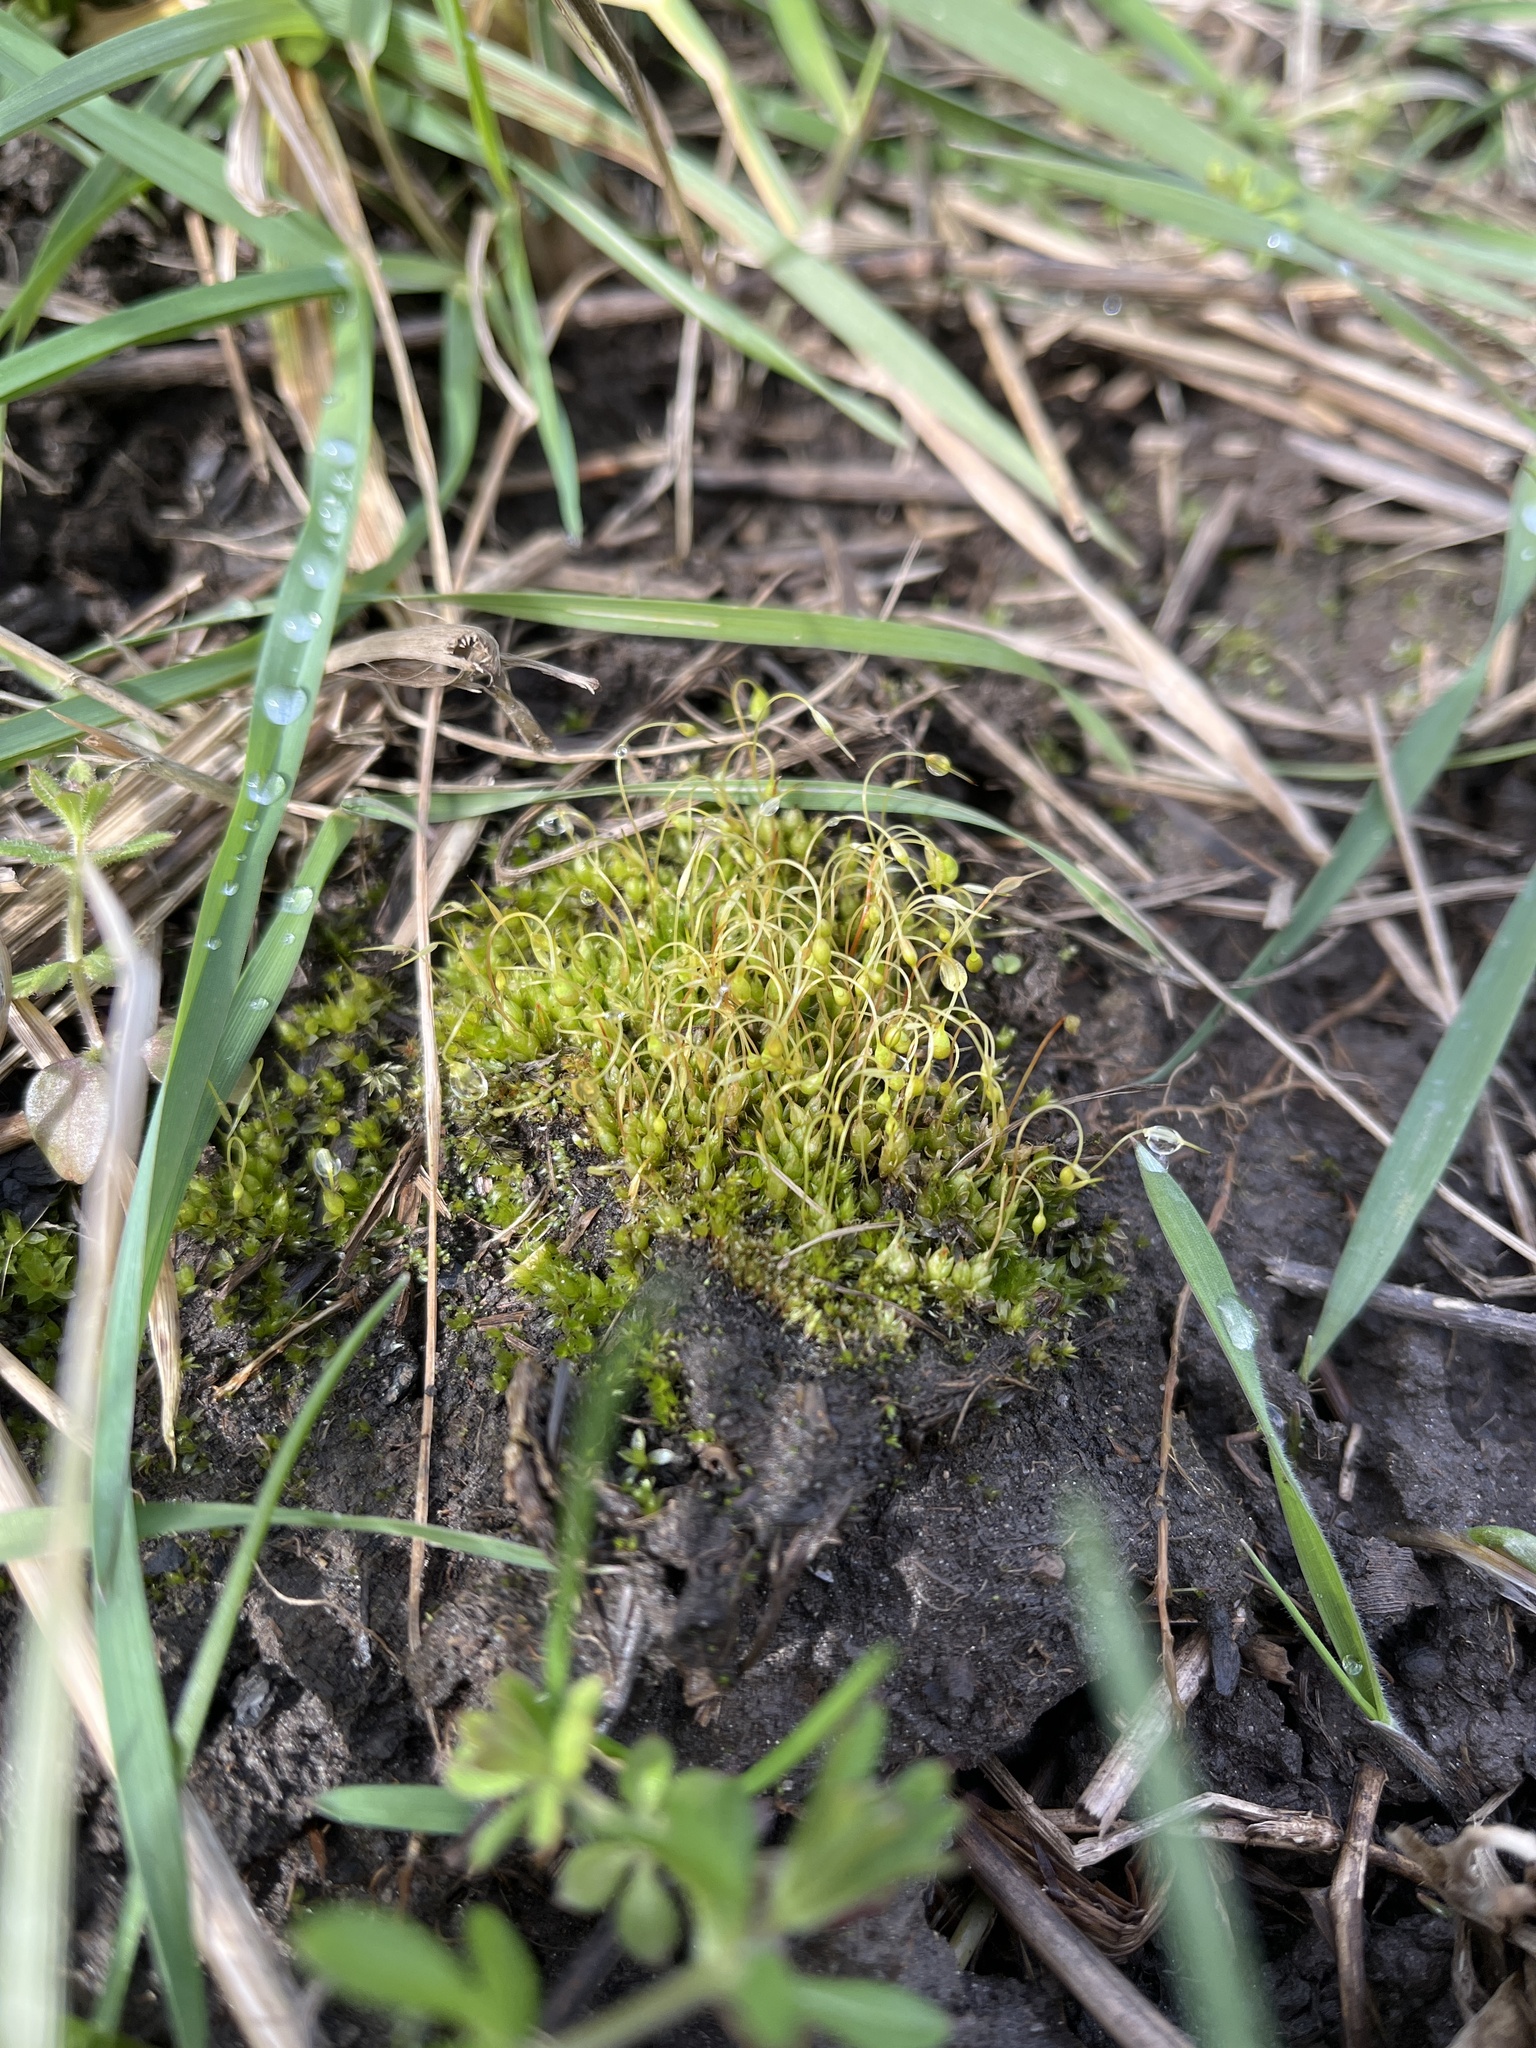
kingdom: Plantae
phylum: Bryophyta
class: Bryopsida
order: Funariales
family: Funariaceae
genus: Funaria
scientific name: Funaria hygrometrica
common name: Common cord moss
